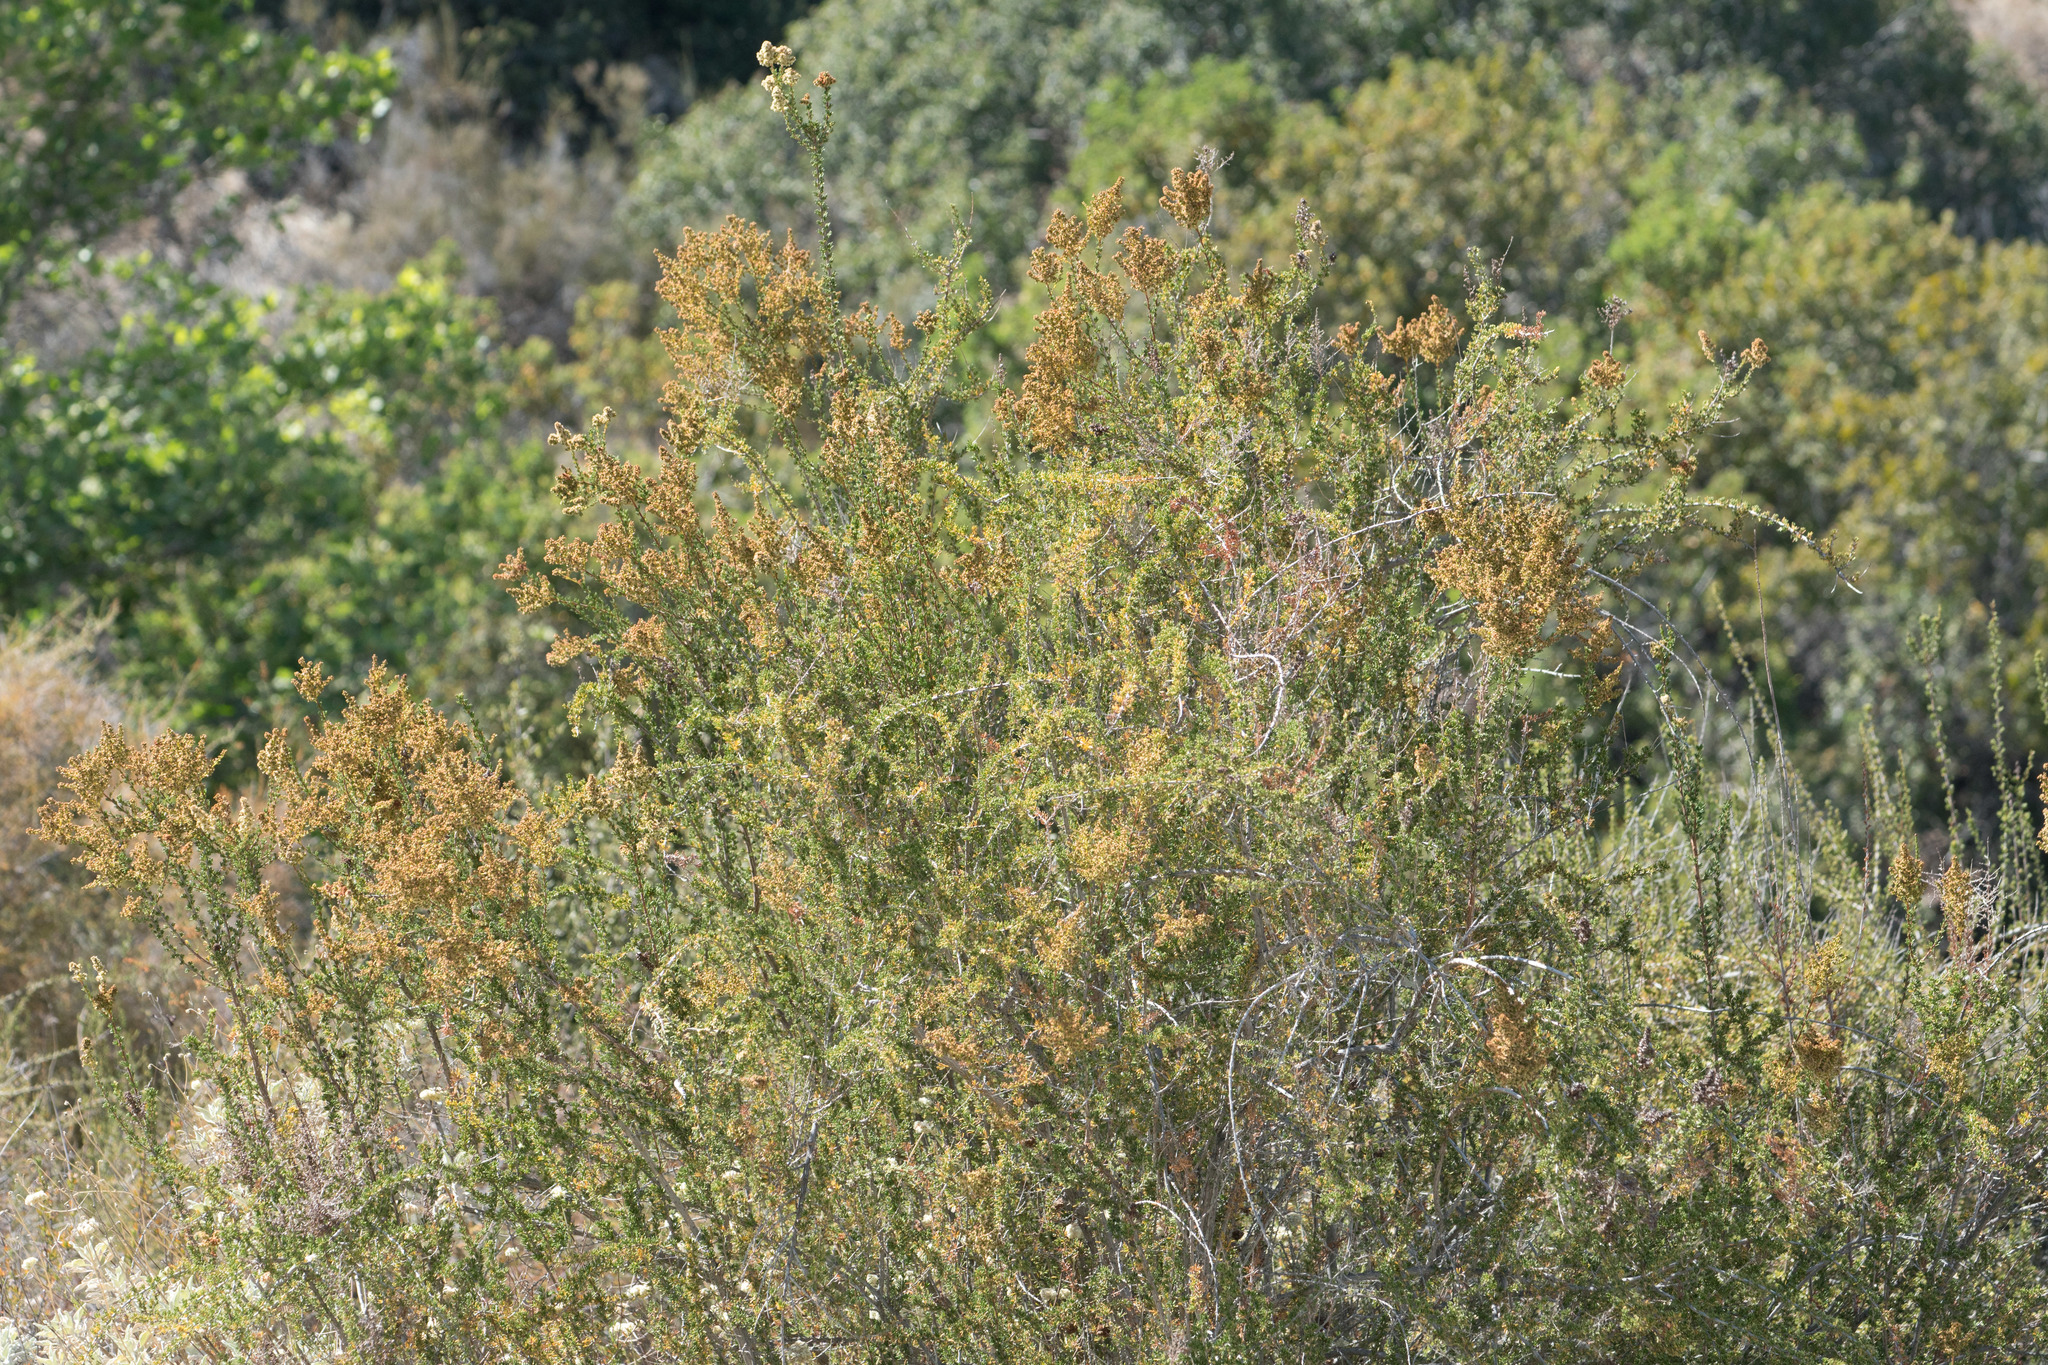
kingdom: Plantae
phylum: Tracheophyta
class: Magnoliopsida
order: Rosales
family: Rosaceae
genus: Adenostoma
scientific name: Adenostoma fasciculatum
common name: Chamise
